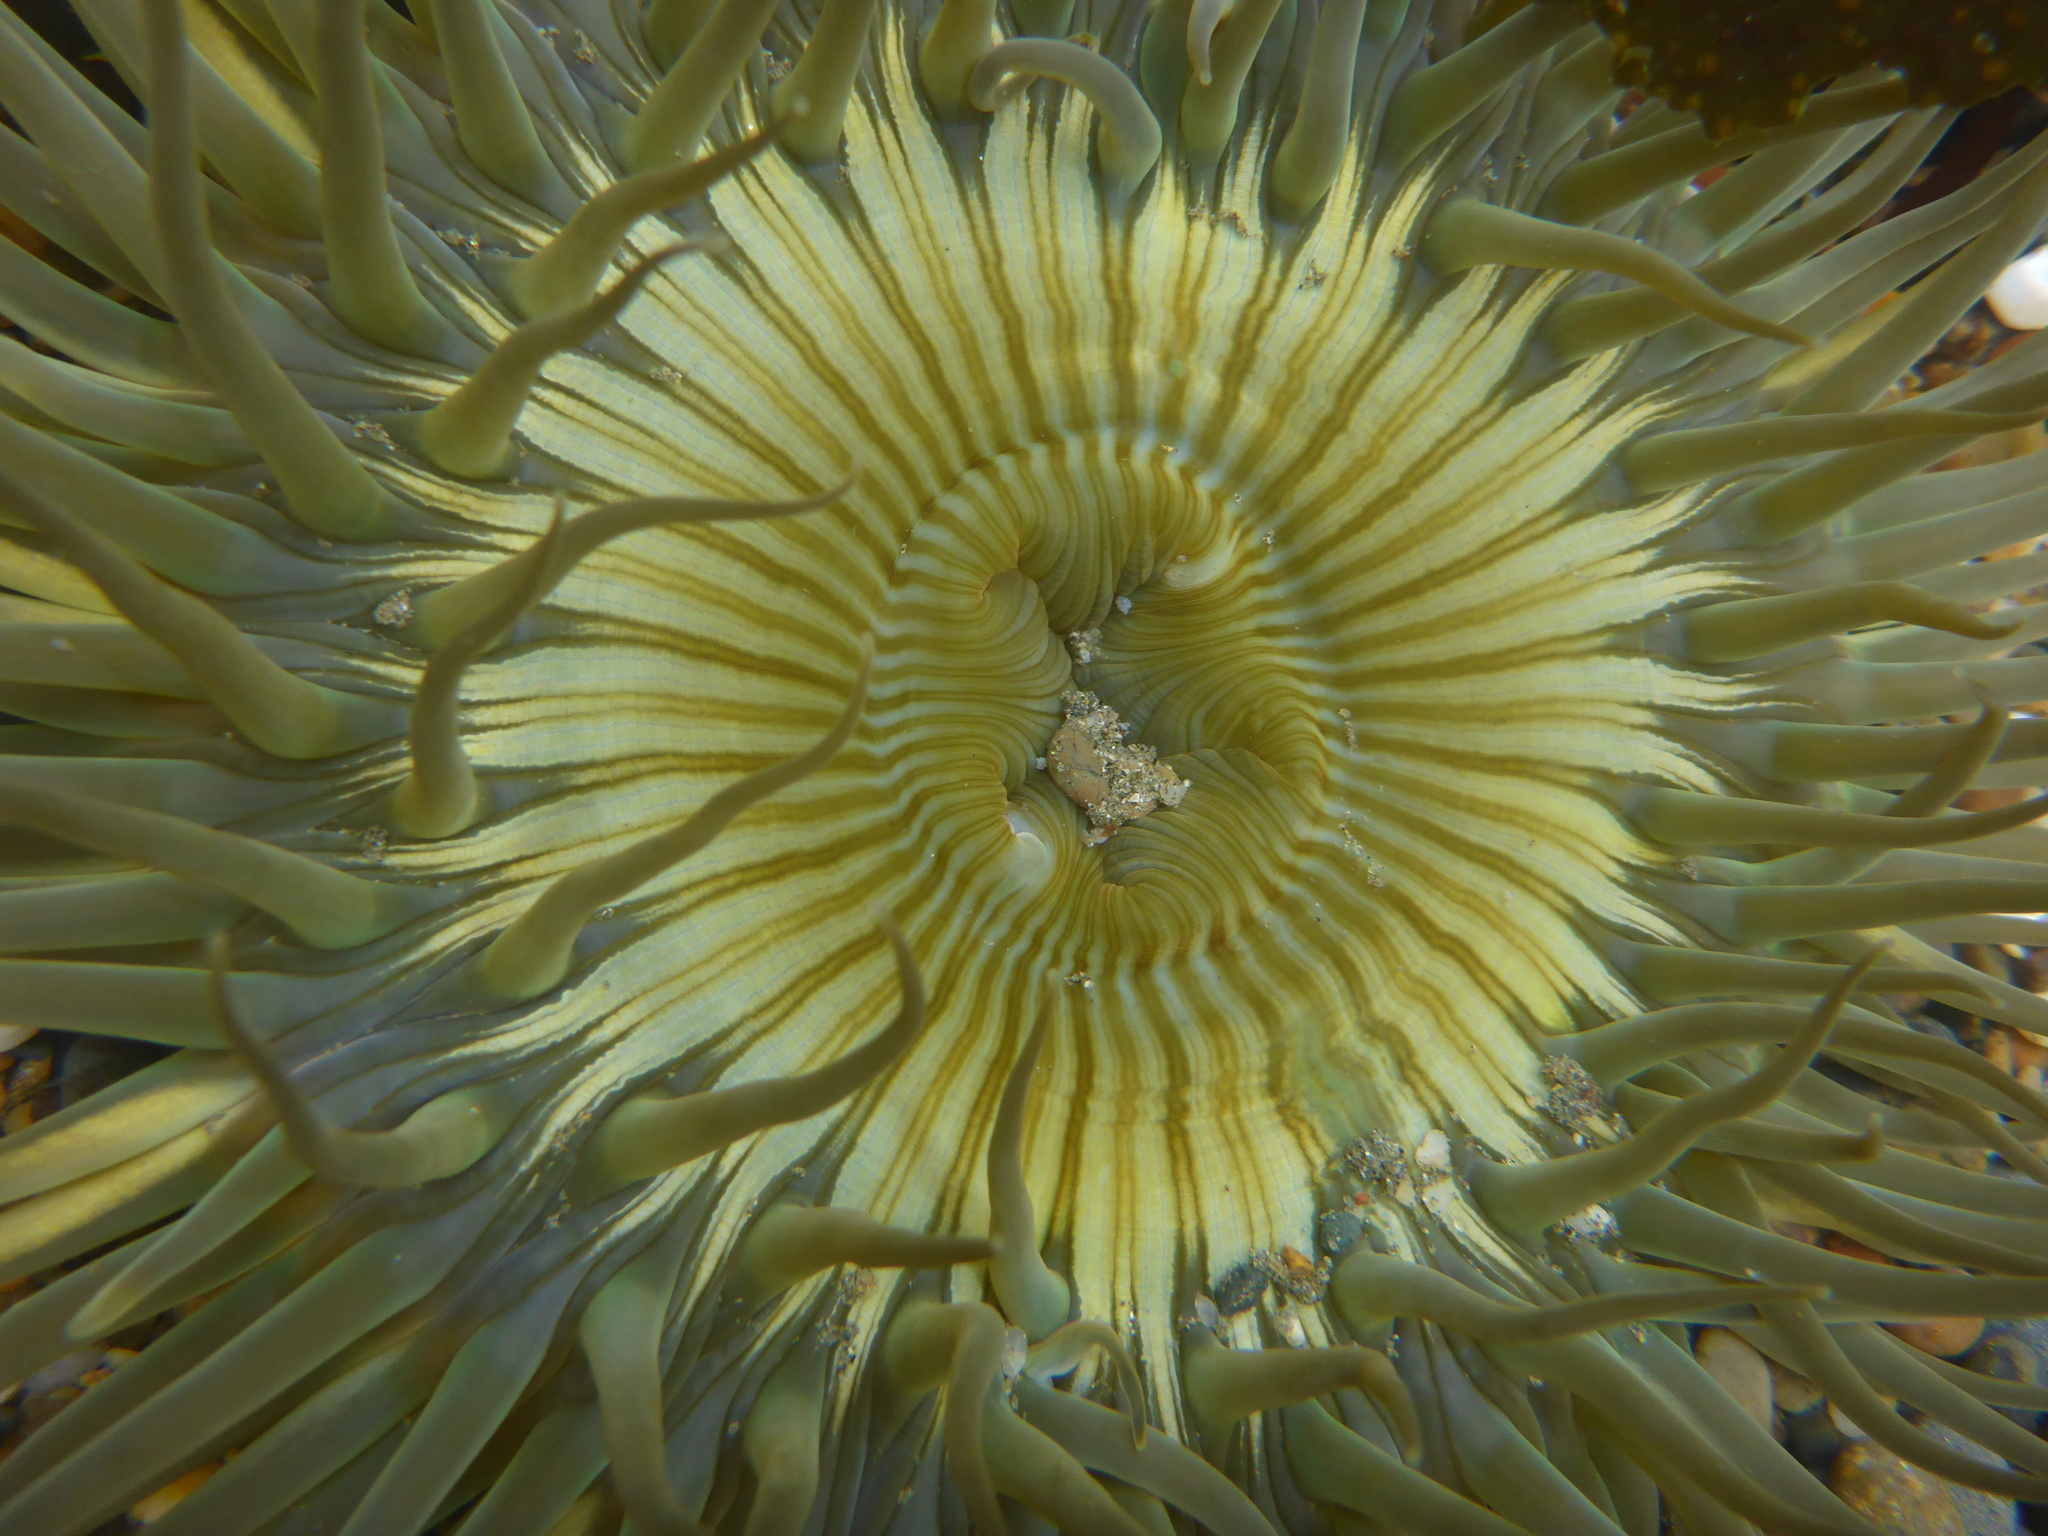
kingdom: Animalia
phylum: Cnidaria
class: Anthozoa
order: Actiniaria
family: Actiniidae
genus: Anthopleura
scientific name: Anthopleura sola
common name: Sun anemone
